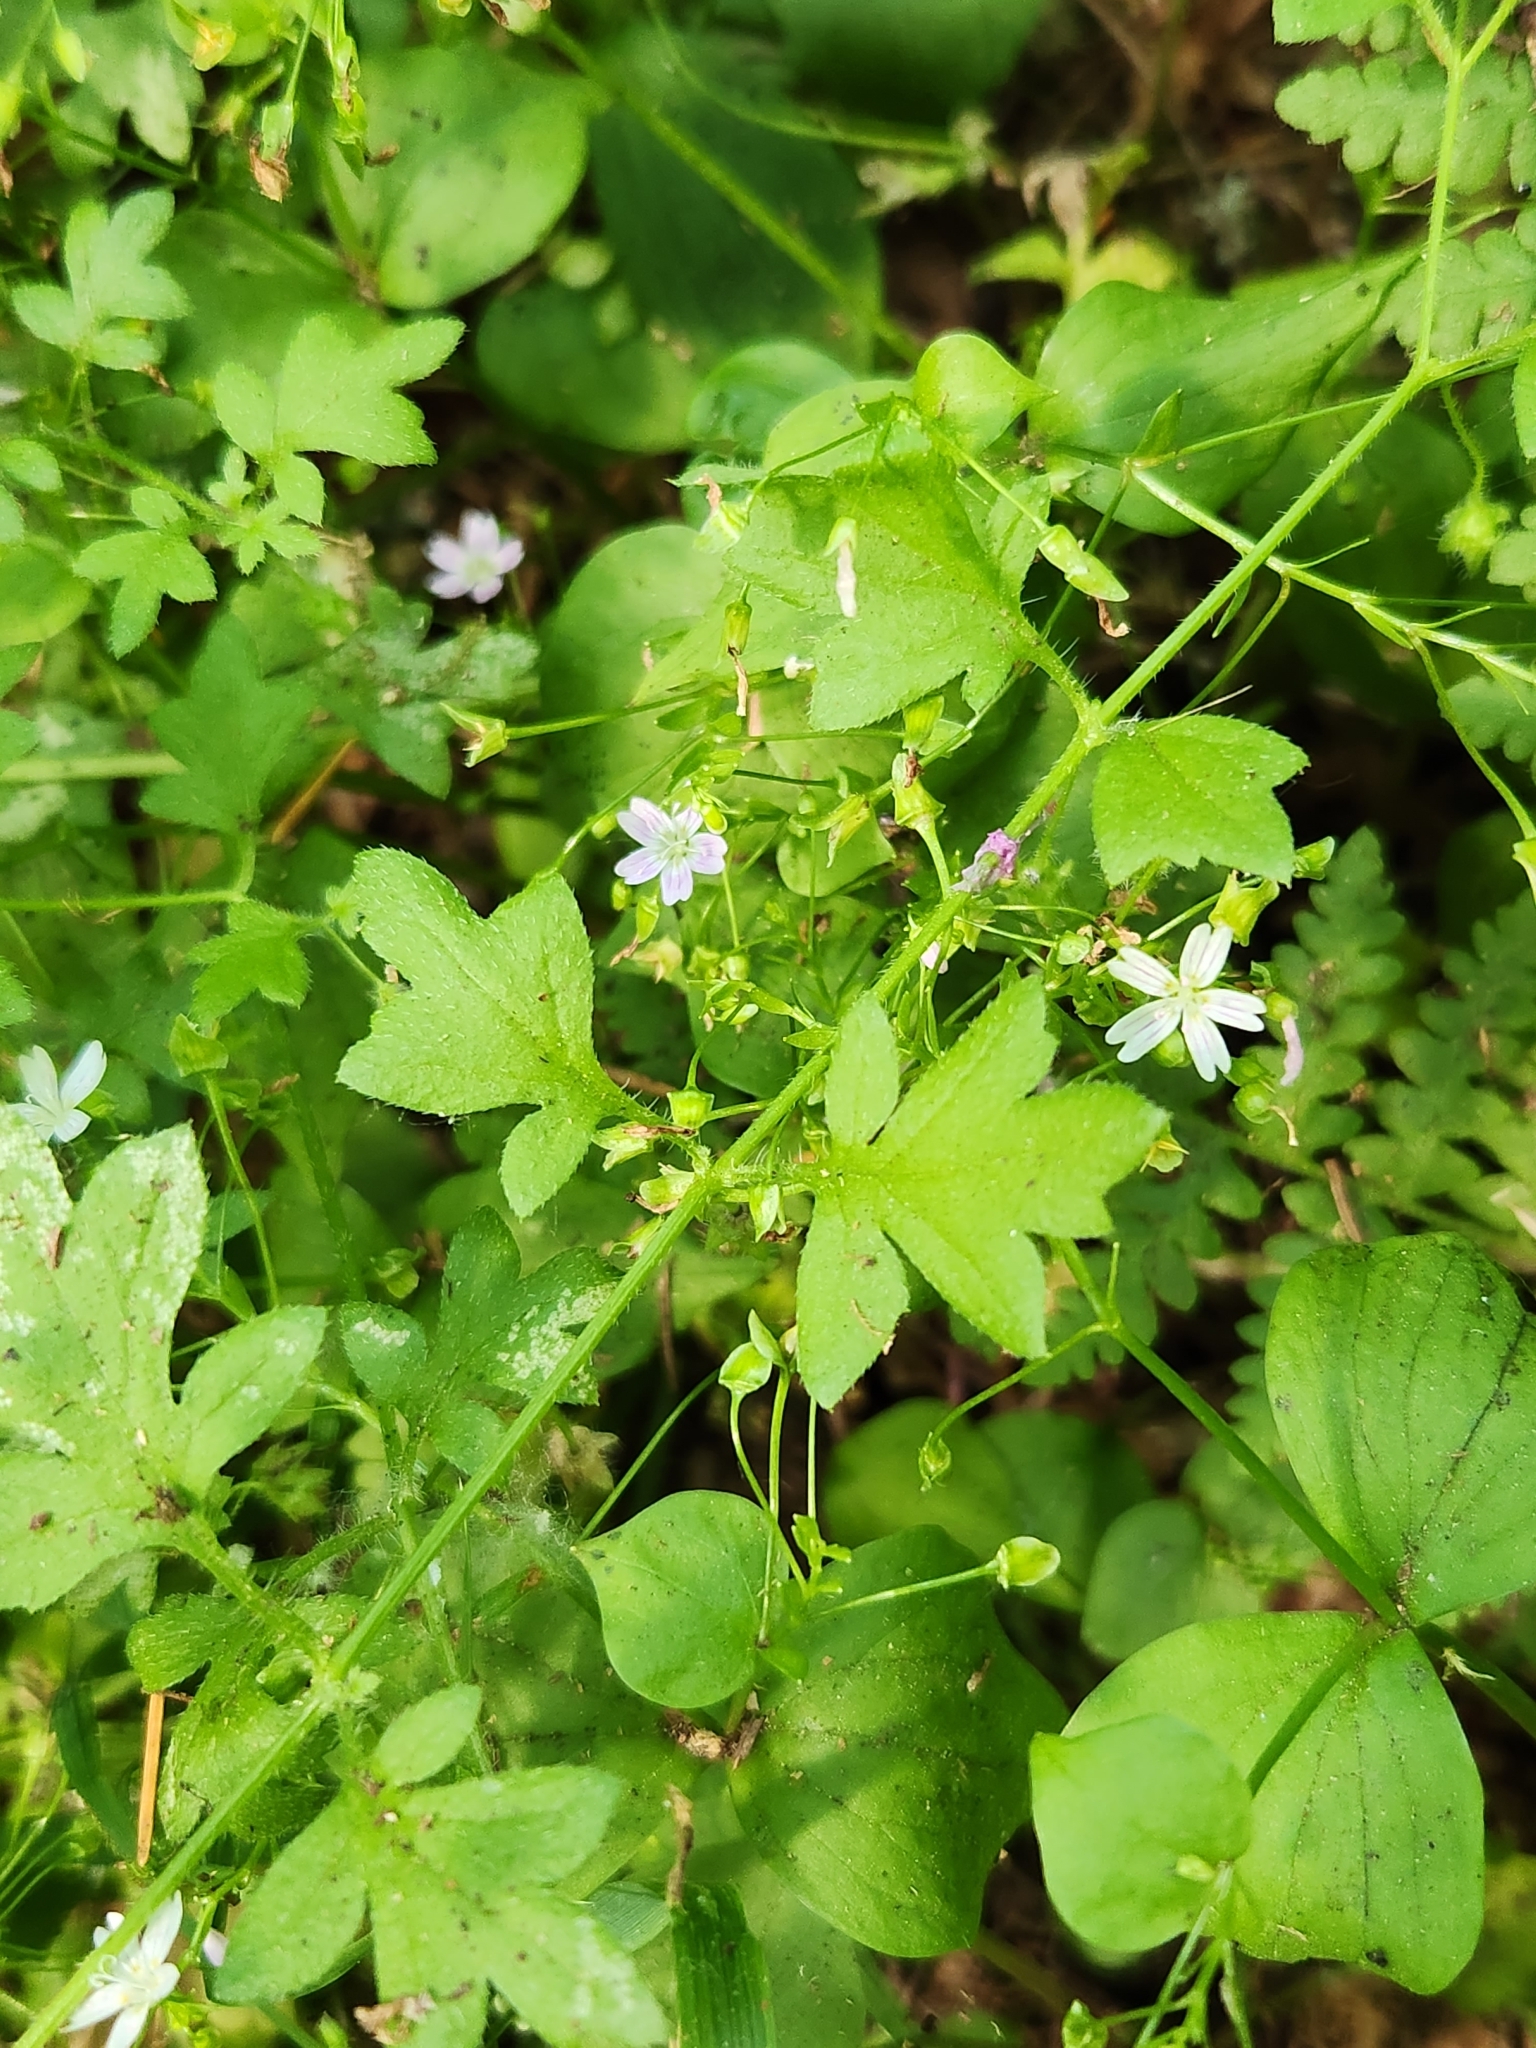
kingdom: Plantae
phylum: Tracheophyta
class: Magnoliopsida
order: Boraginales
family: Hydrophyllaceae
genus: Nemophila
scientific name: Nemophila parviflora
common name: Small-flowered baby-blue-eyes
